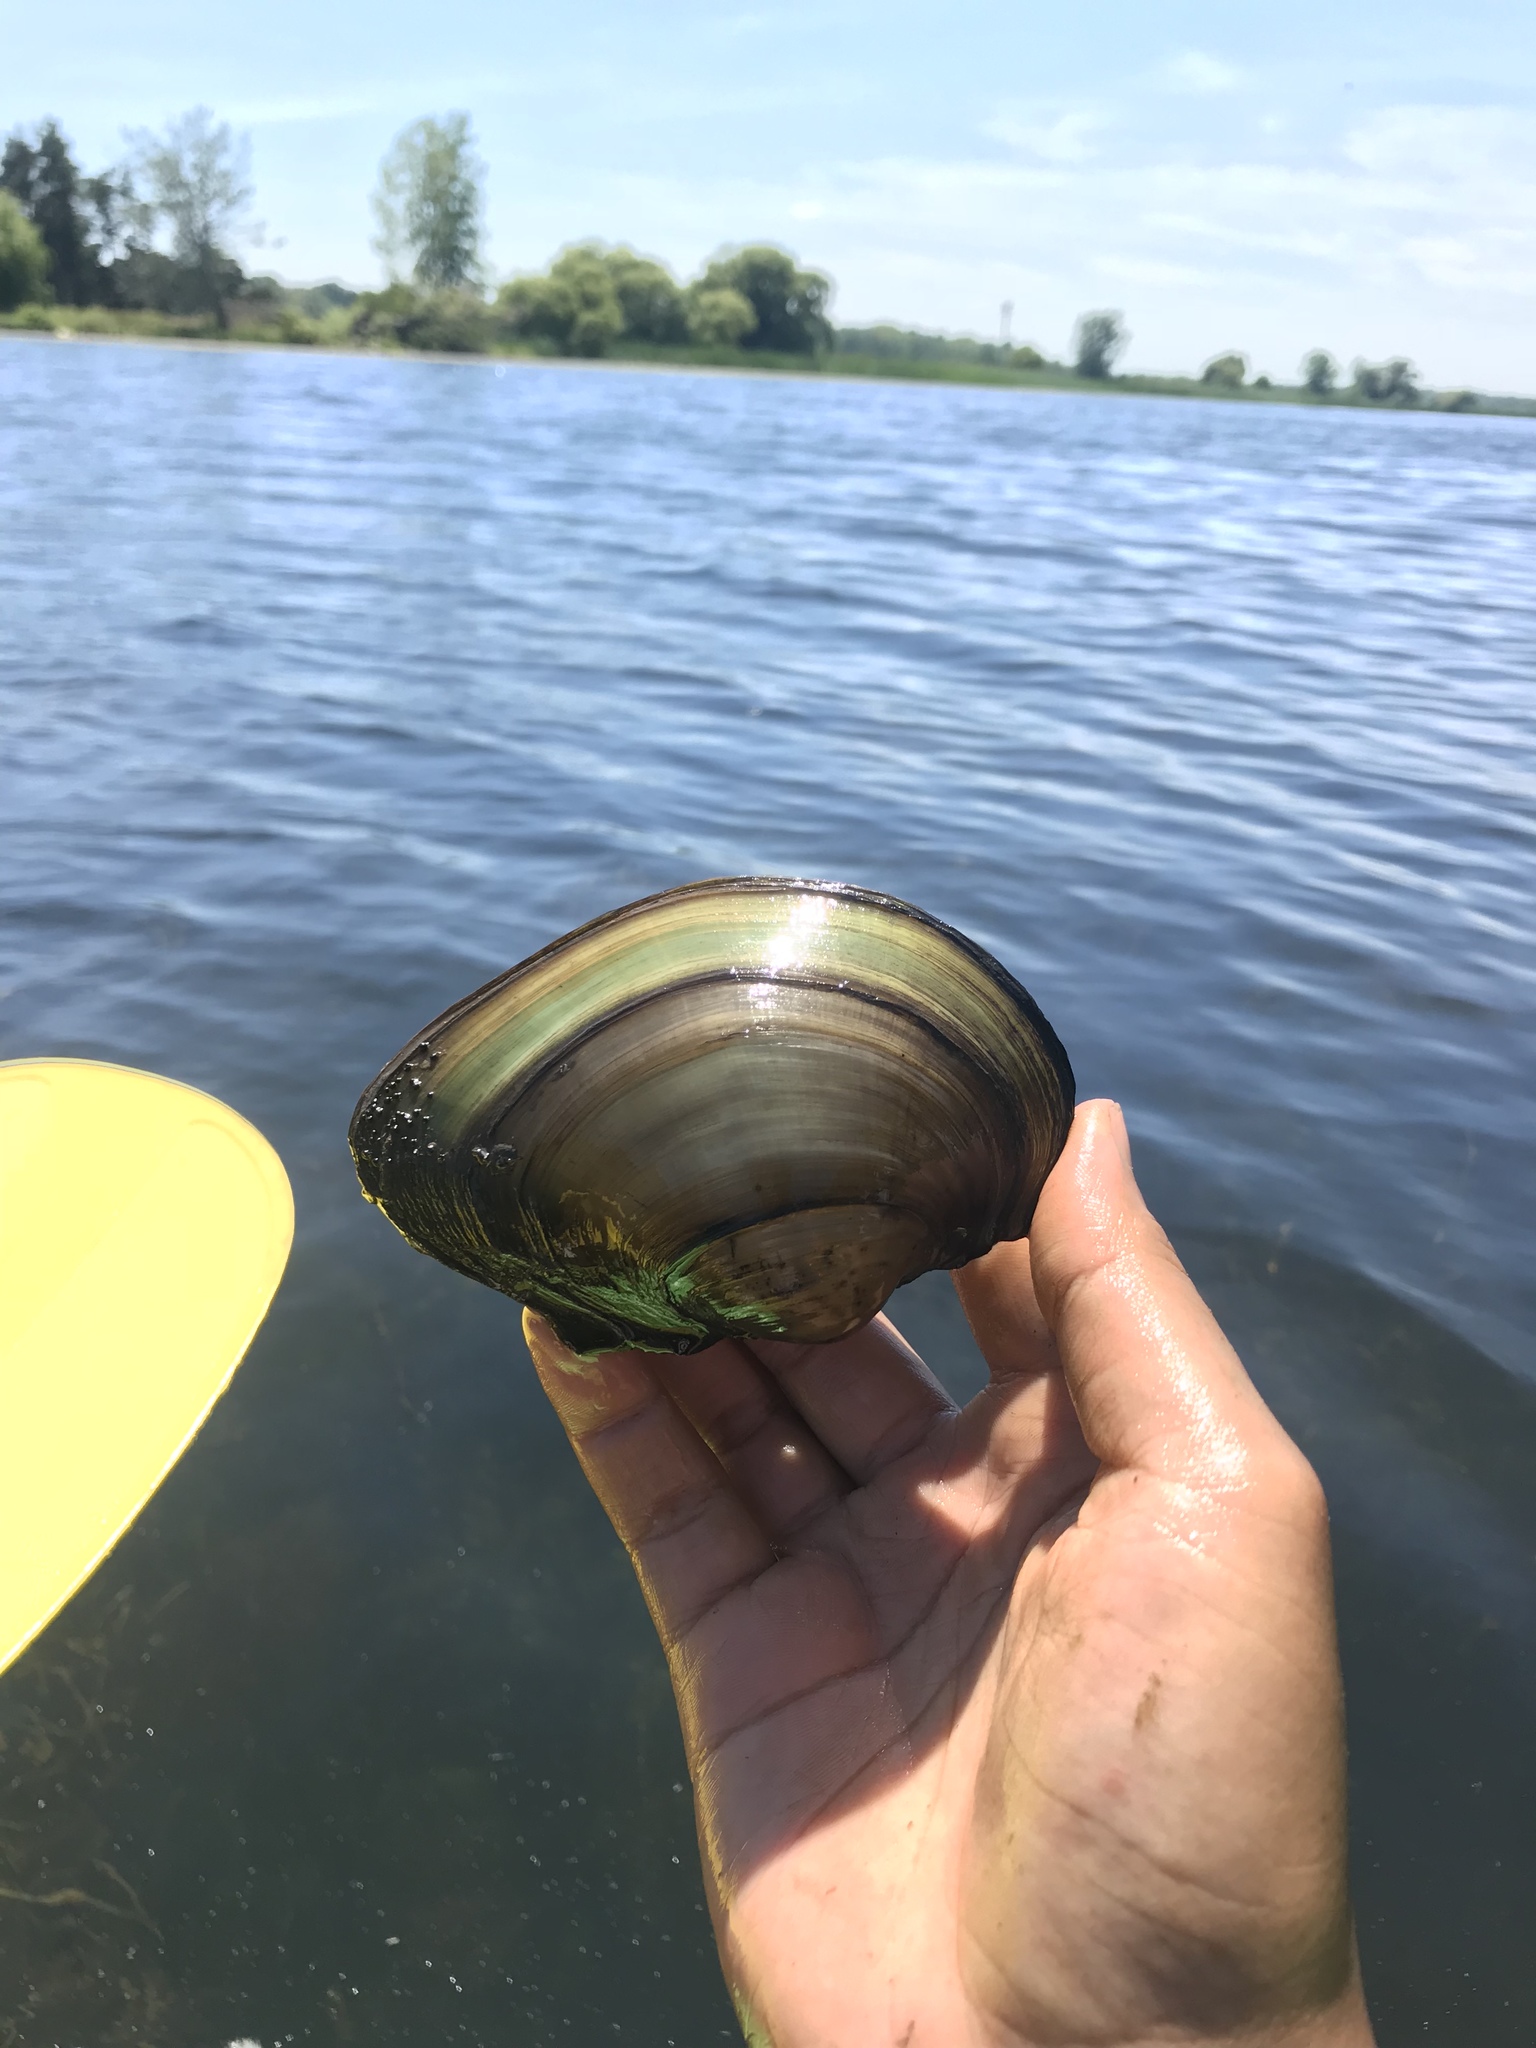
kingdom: Animalia
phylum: Mollusca
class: Bivalvia
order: Unionida
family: Unionidae
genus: Pyganodon
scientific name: Pyganodon grandis
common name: Giant floater
